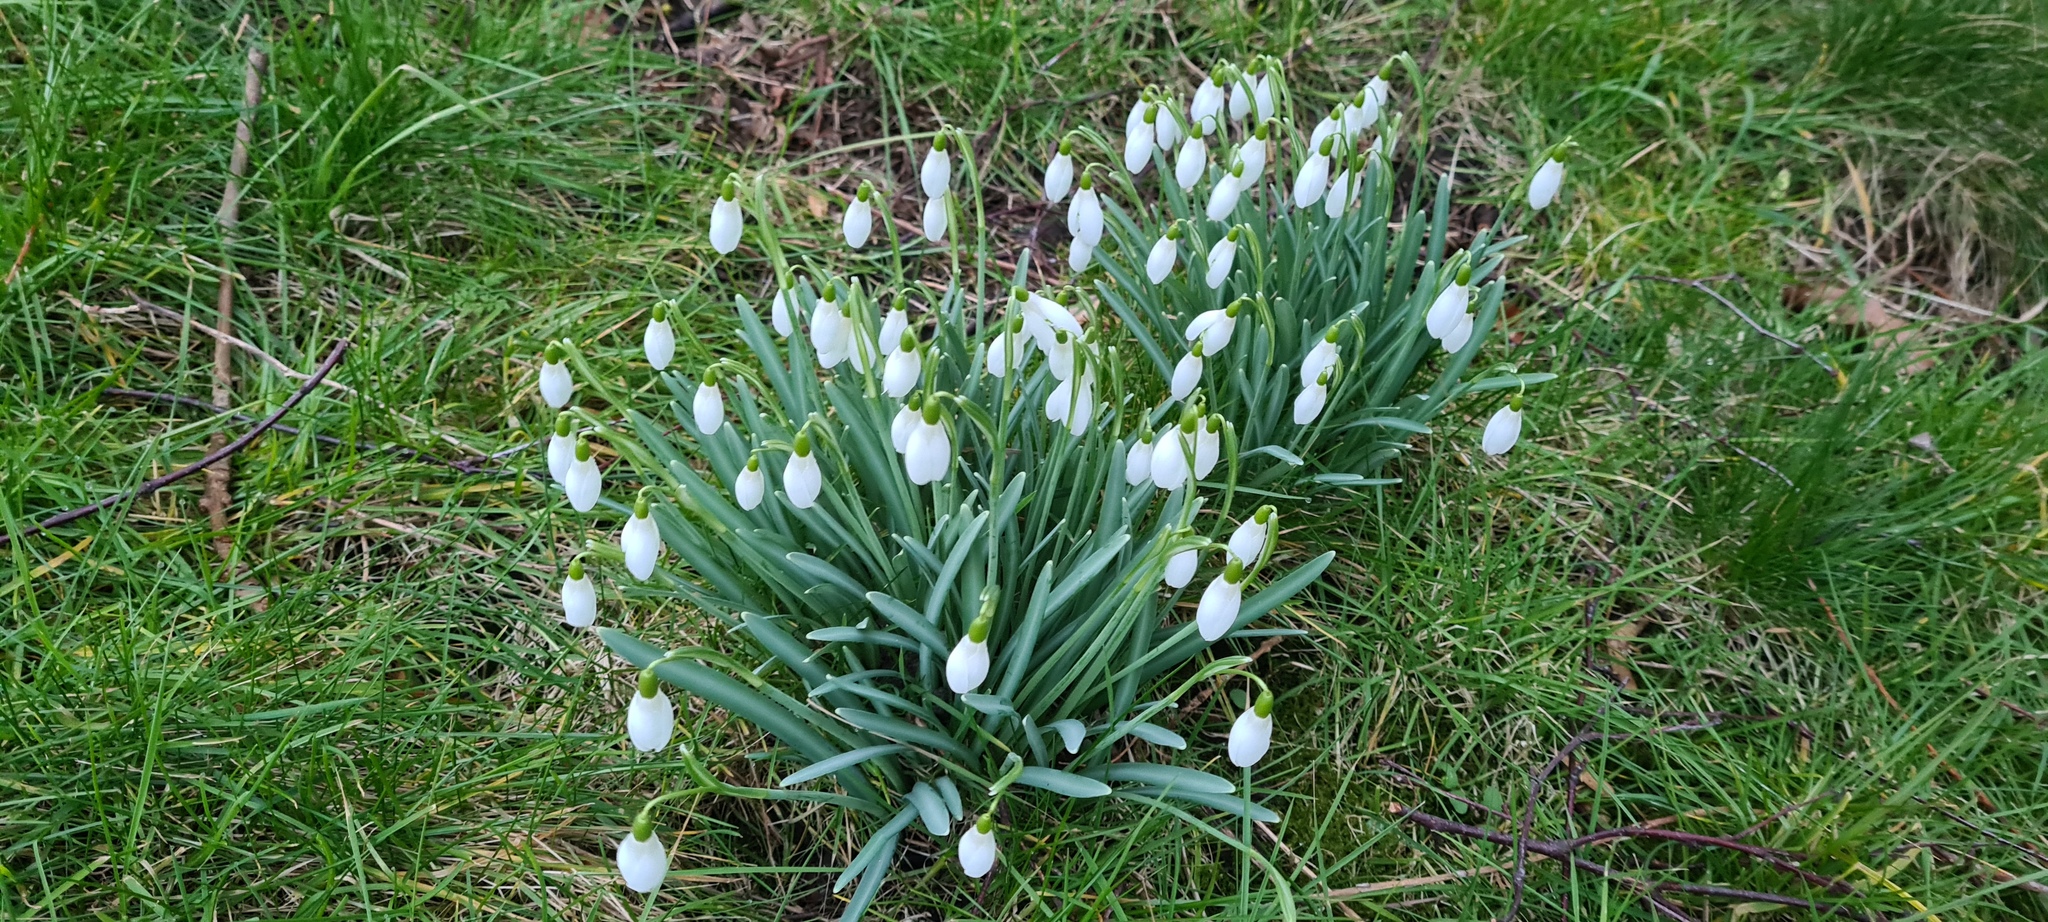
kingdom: Plantae
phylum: Tracheophyta
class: Liliopsida
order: Asparagales
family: Amaryllidaceae
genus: Galanthus
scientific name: Galanthus nivalis
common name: Snowdrop
